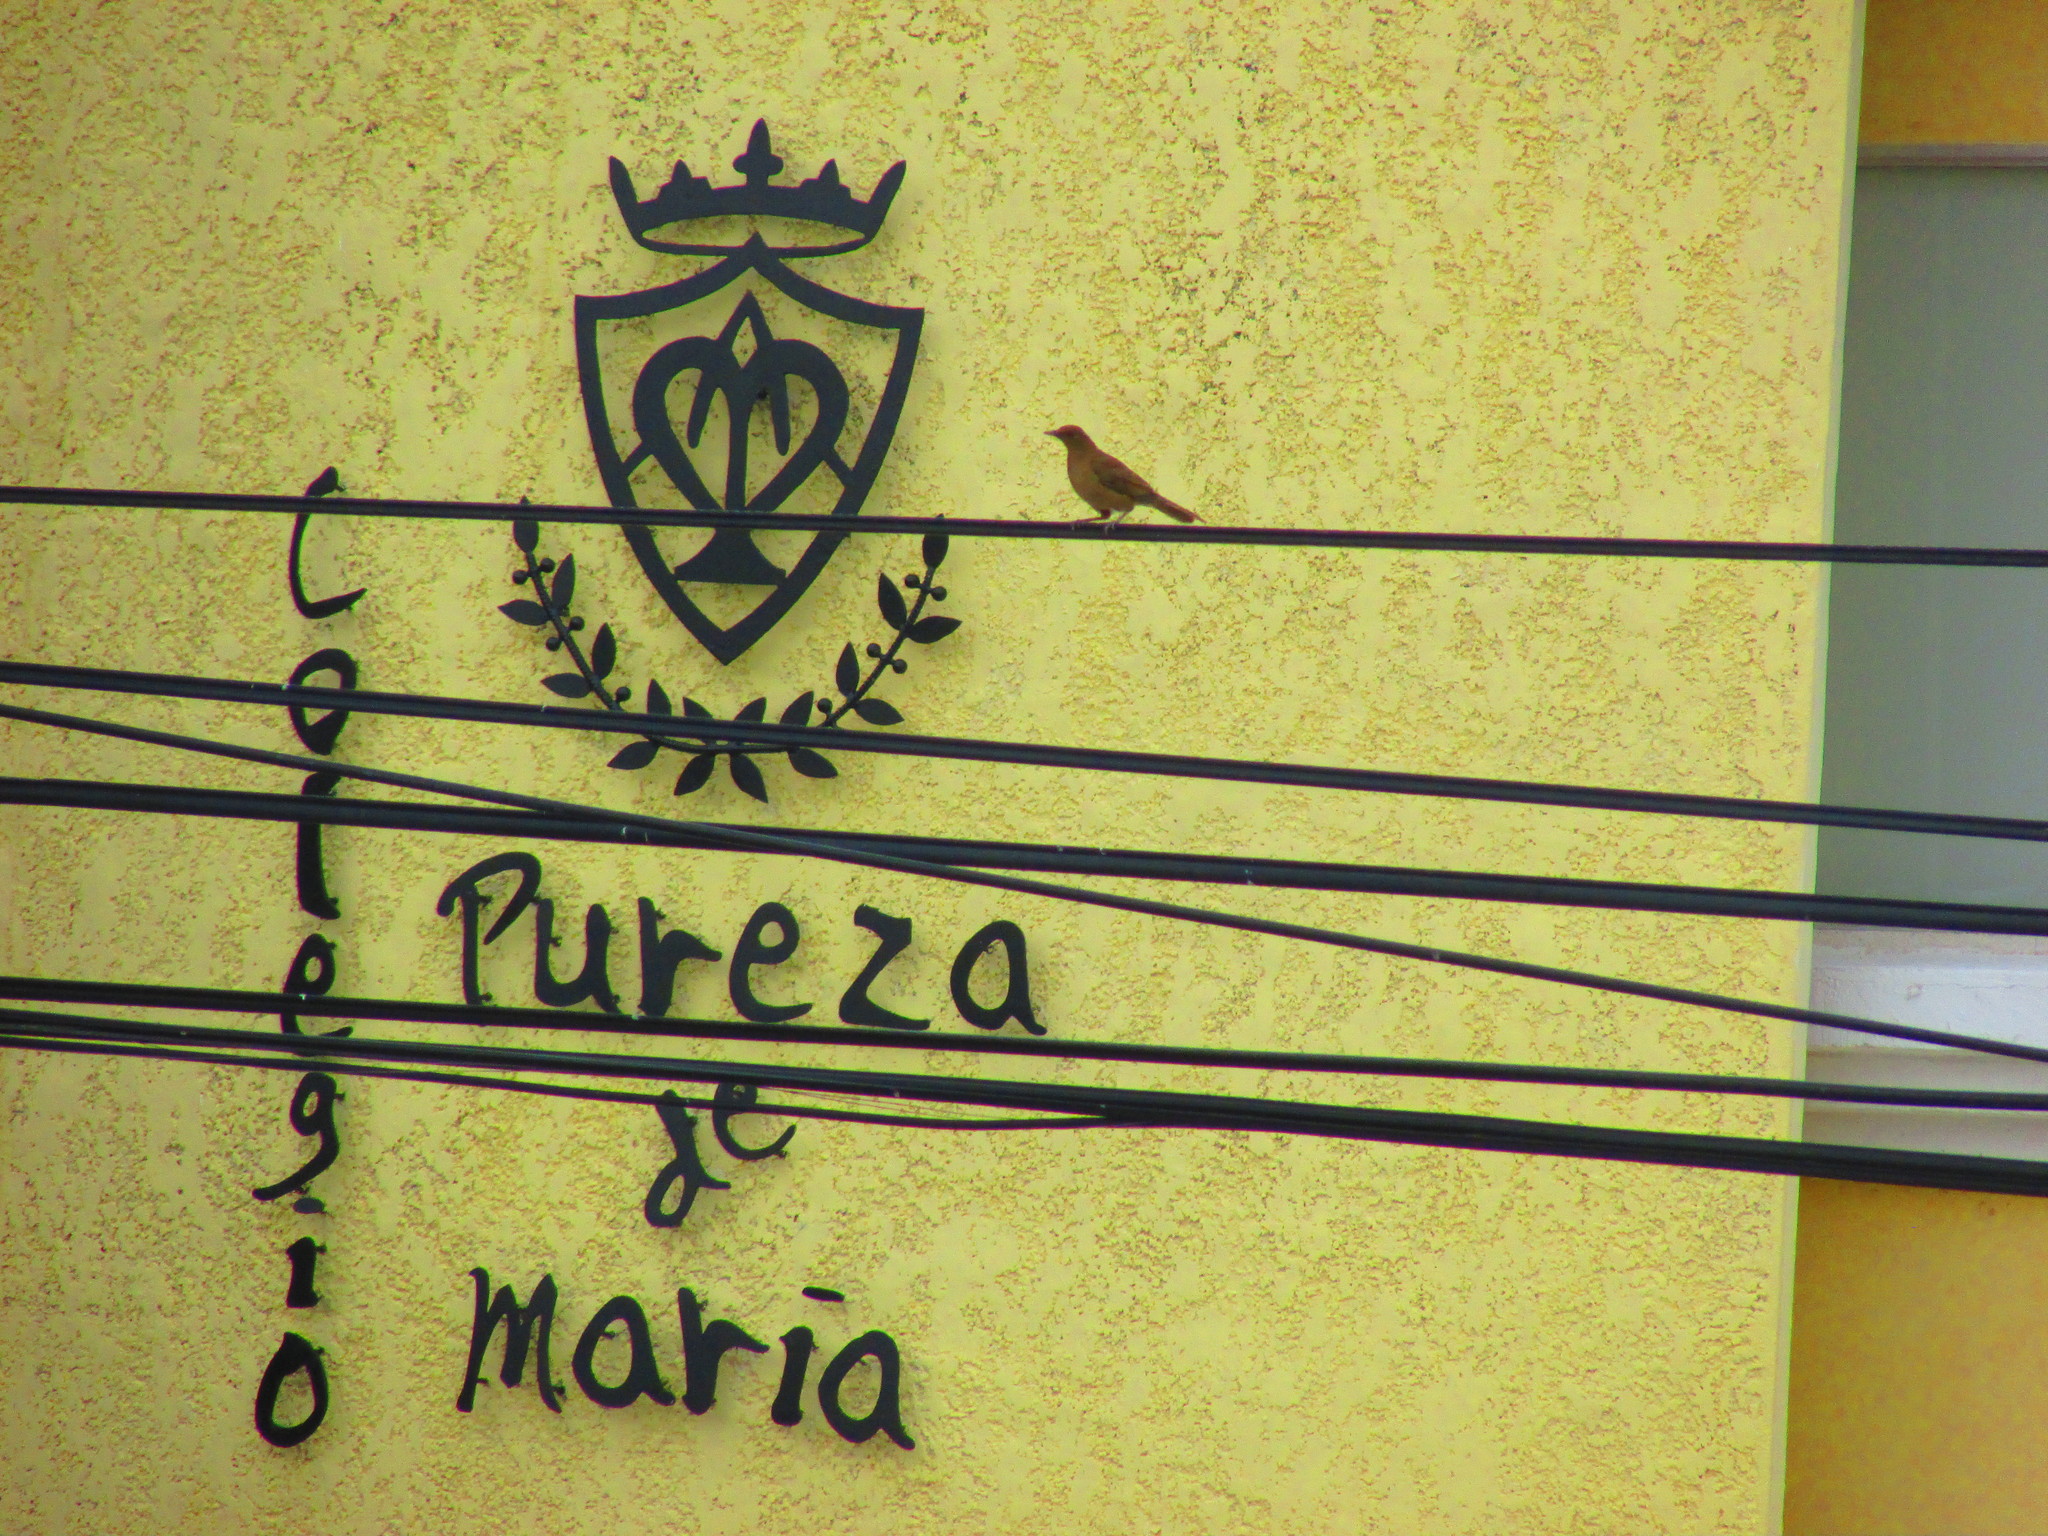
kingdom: Animalia
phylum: Chordata
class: Aves
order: Passeriformes
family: Turdidae
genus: Turdus
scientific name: Turdus grayi
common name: Clay-colored thrush
